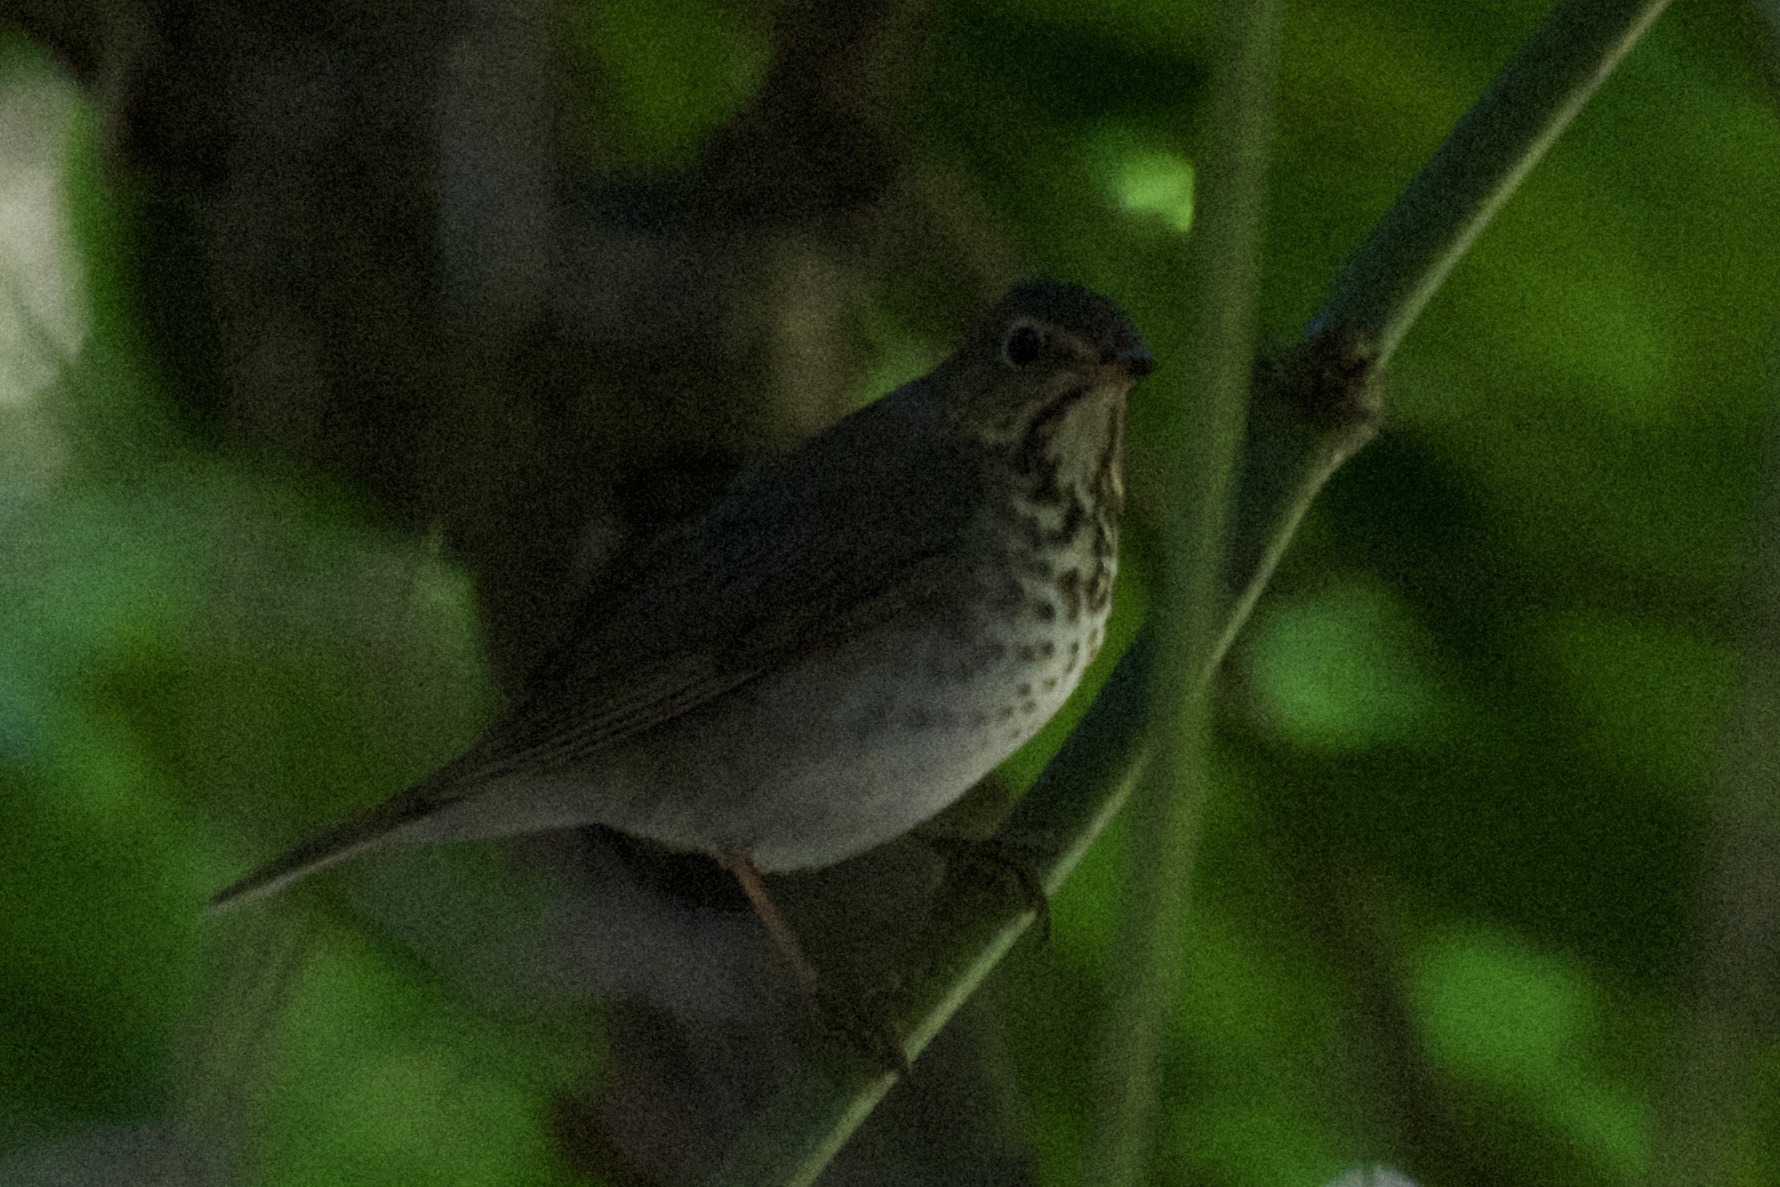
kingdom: Animalia
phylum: Chordata
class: Aves
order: Passeriformes
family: Turdidae
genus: Catharus
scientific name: Catharus ustulatus
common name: Swainson's thrush
